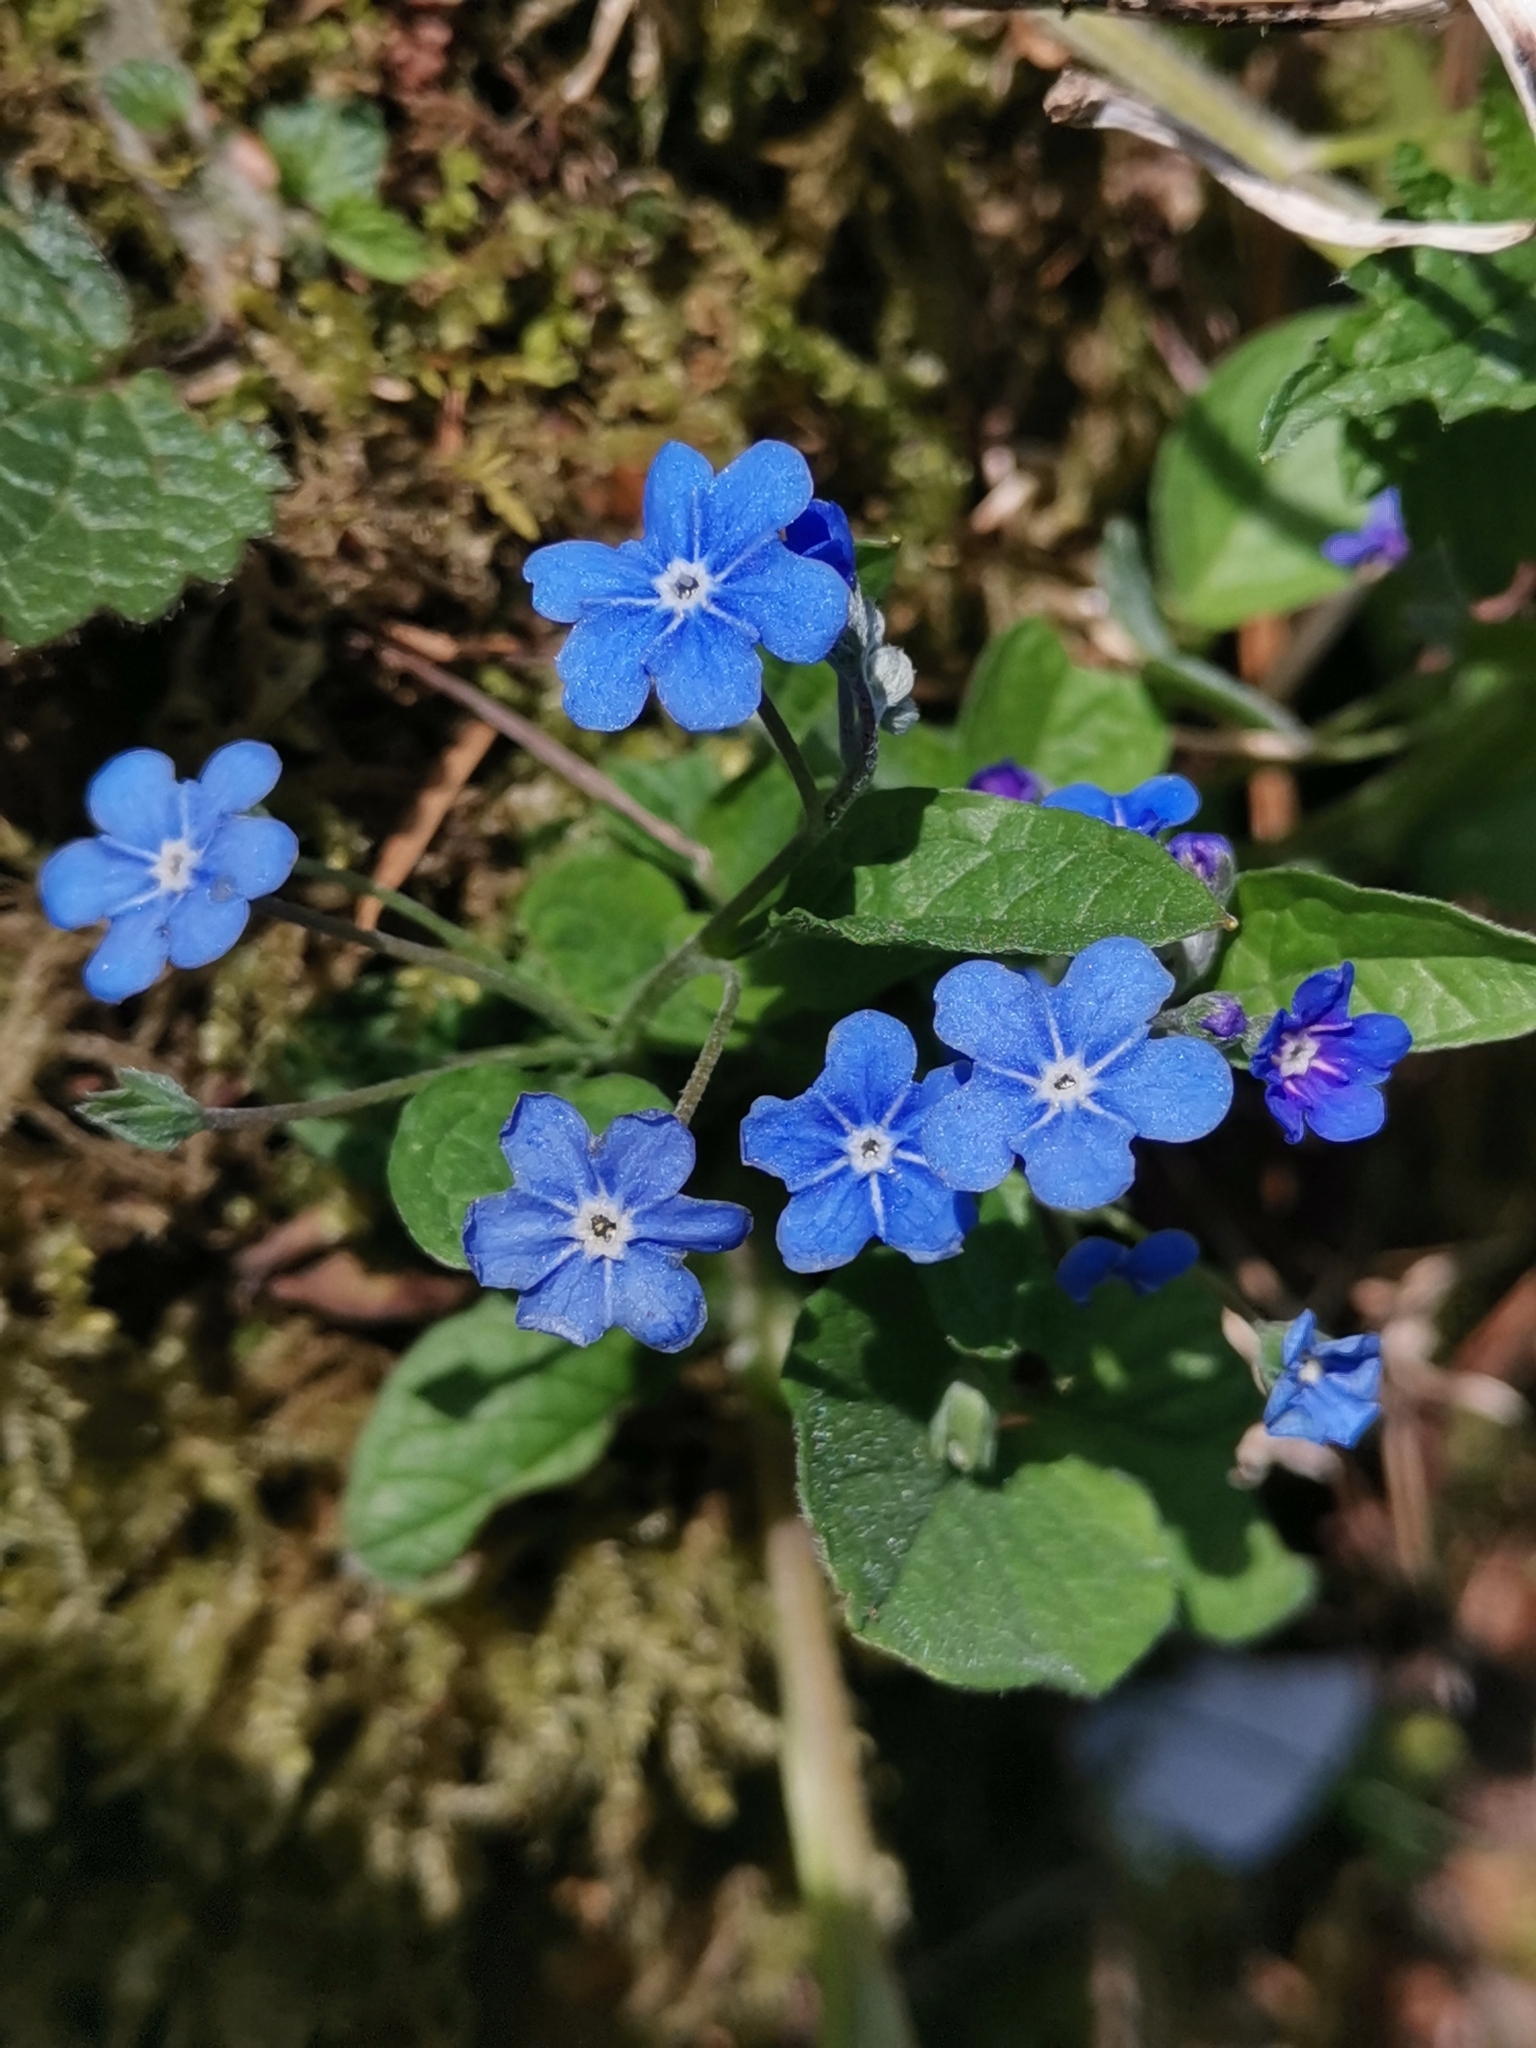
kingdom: Plantae
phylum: Tracheophyta
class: Magnoliopsida
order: Boraginales
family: Boraginaceae
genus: Omphalodes
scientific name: Omphalodes verna
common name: Blue-eyed-mary
